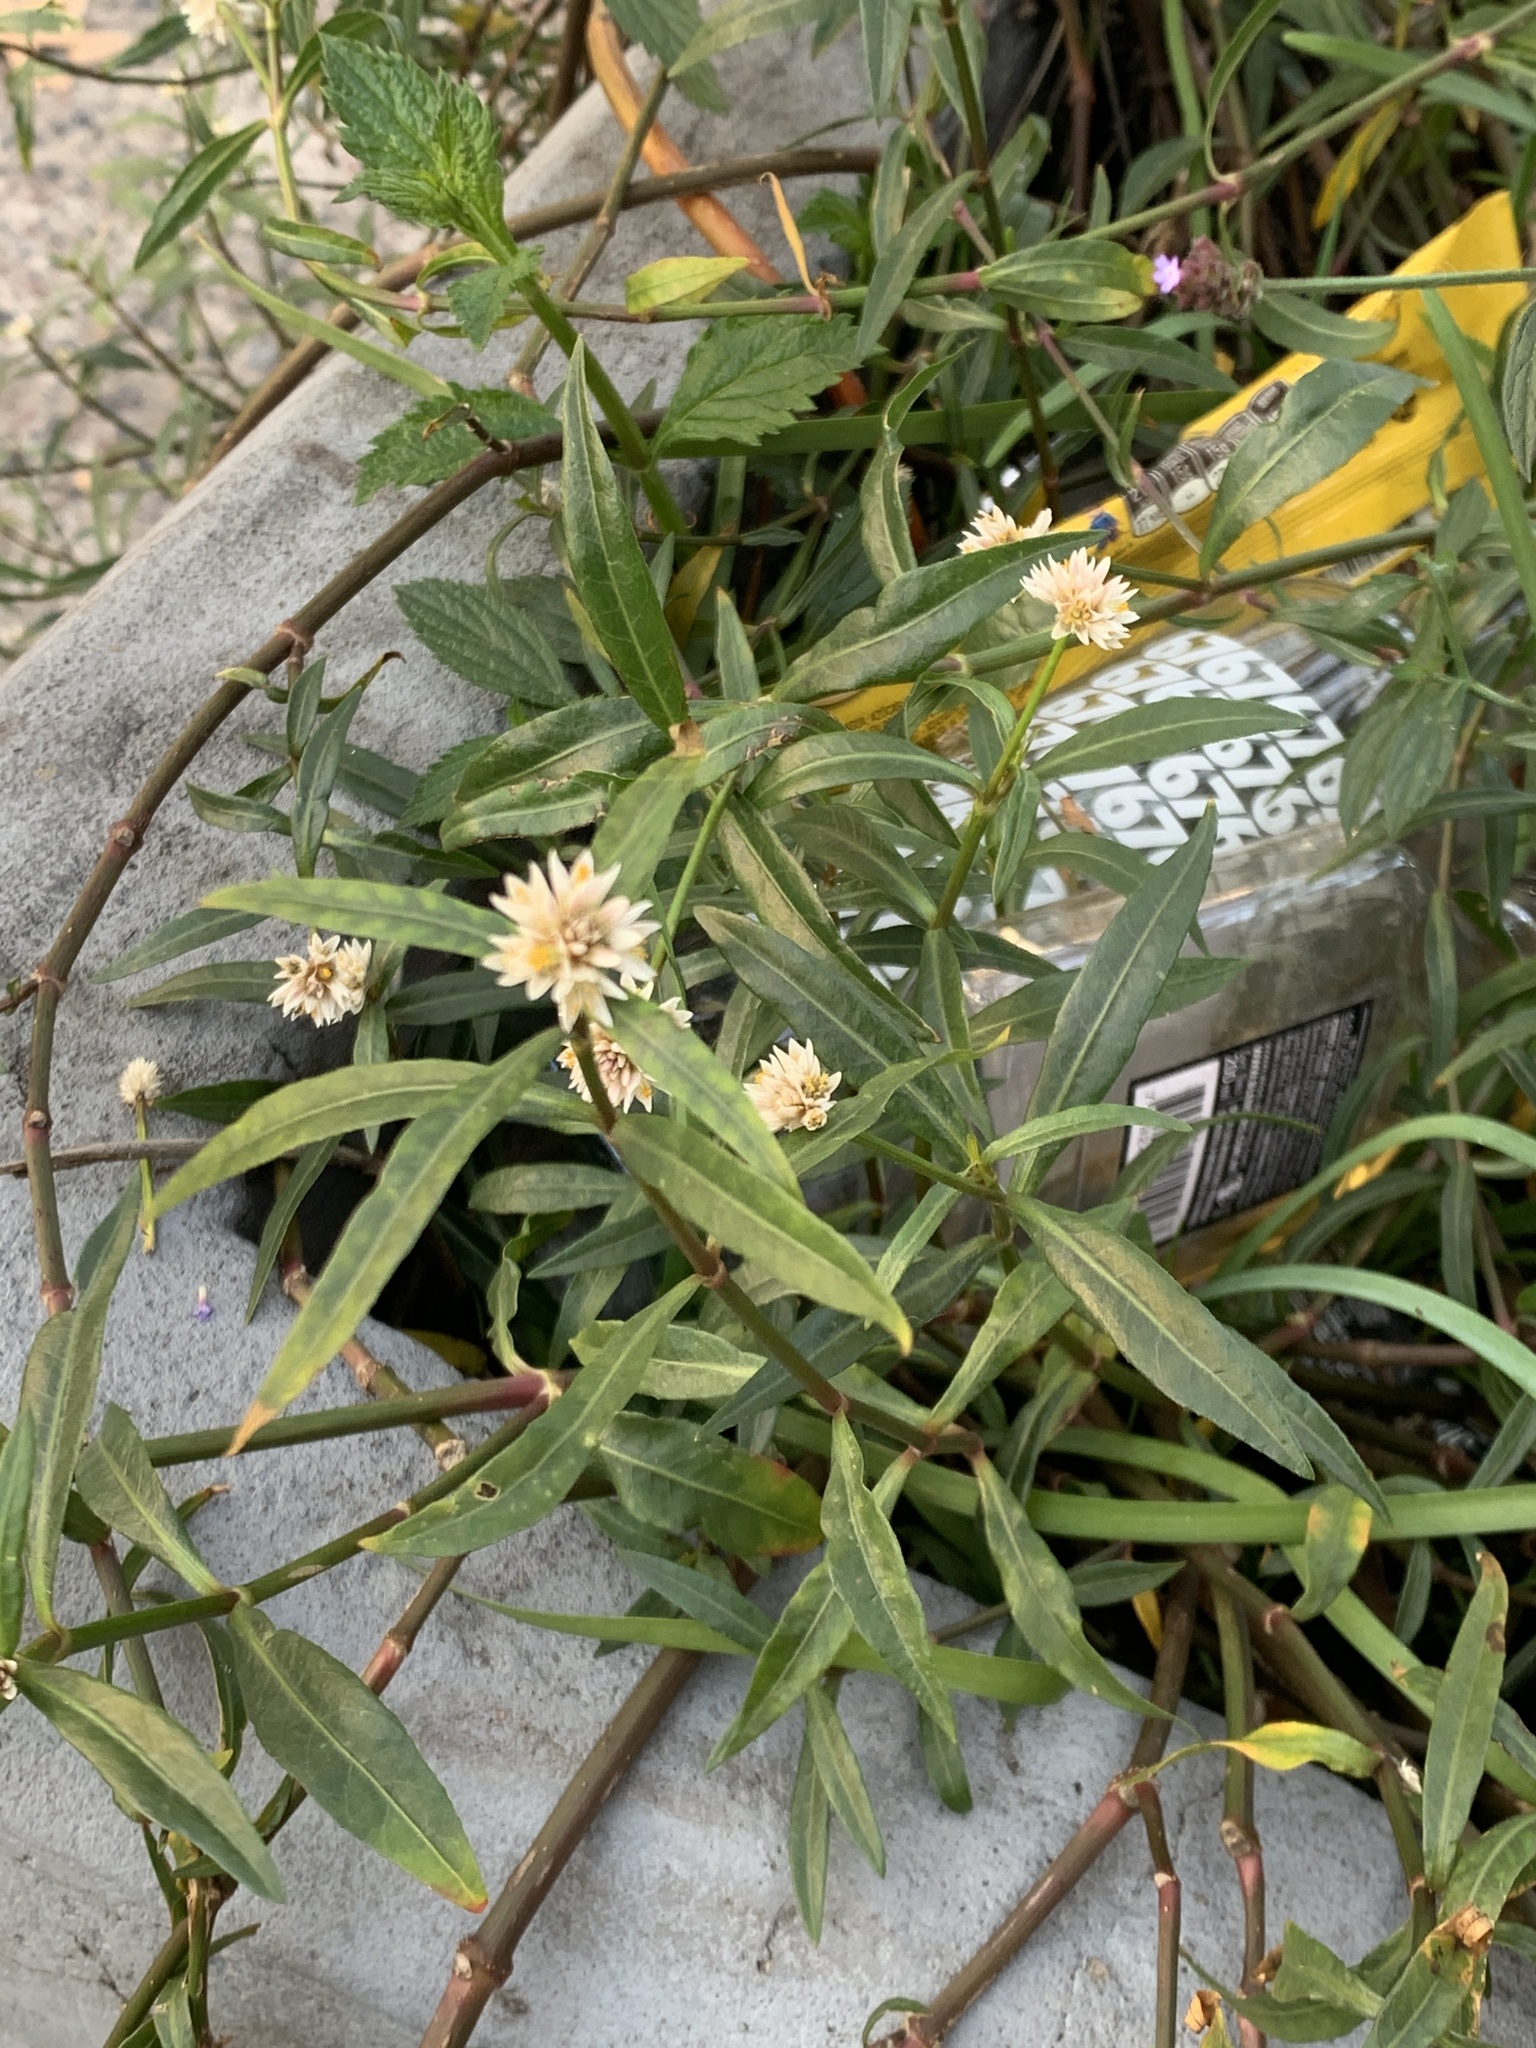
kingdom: Plantae
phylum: Tracheophyta
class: Magnoliopsida
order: Caryophyllales
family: Amaranthaceae
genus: Alternanthera
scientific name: Alternanthera philoxeroides
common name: Alligatorweed
